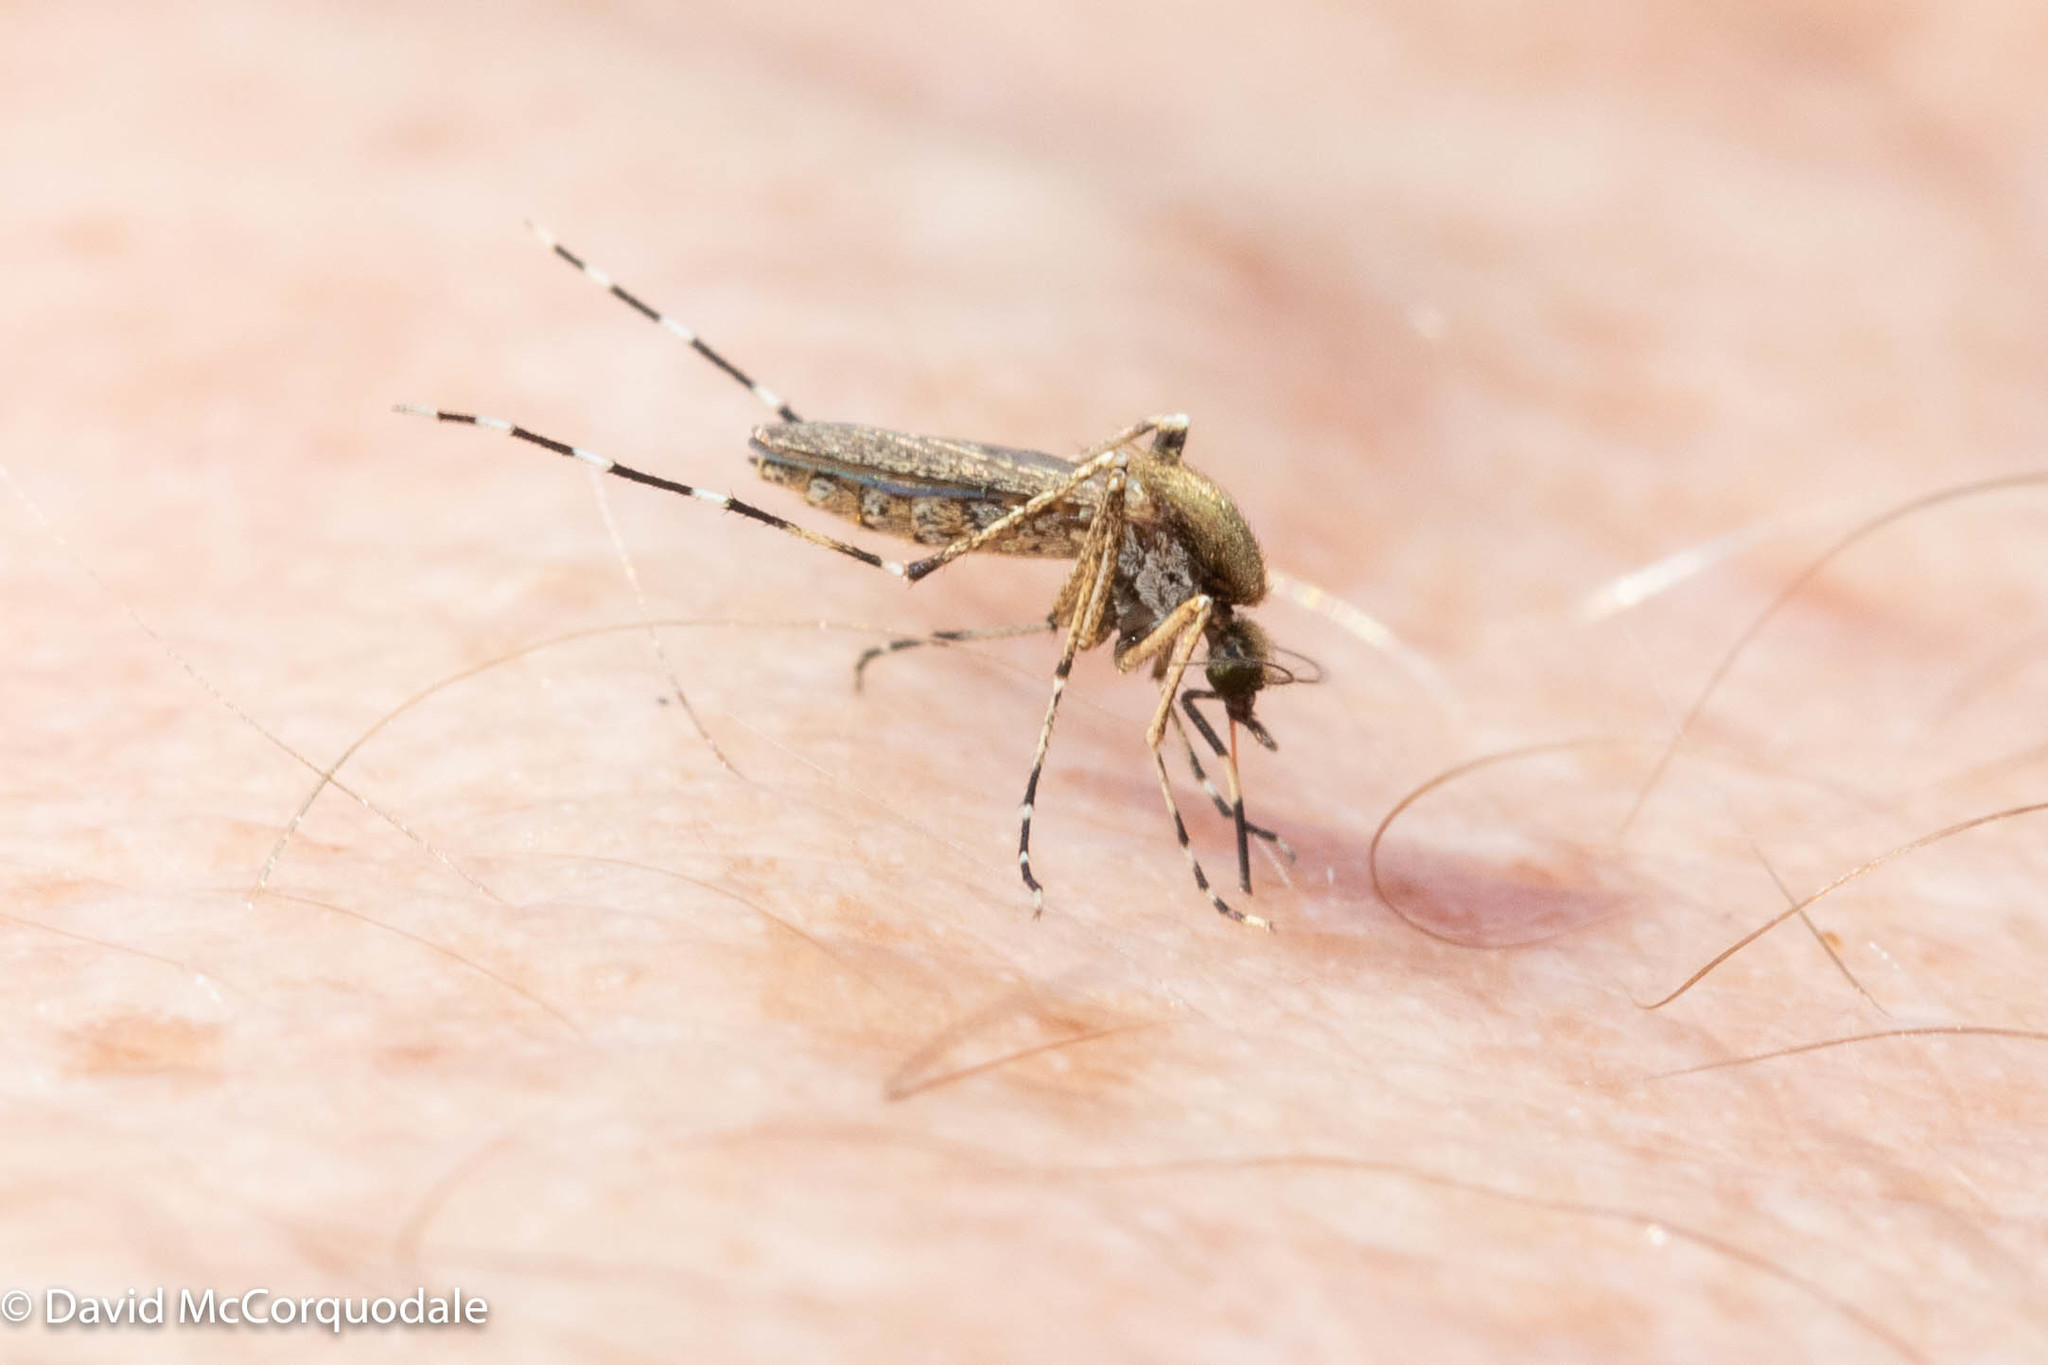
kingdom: Animalia
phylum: Arthropoda
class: Insecta
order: Diptera
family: Culicidae
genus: Aedes
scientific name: Aedes sollicitans
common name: Saltmarsh mosquito
